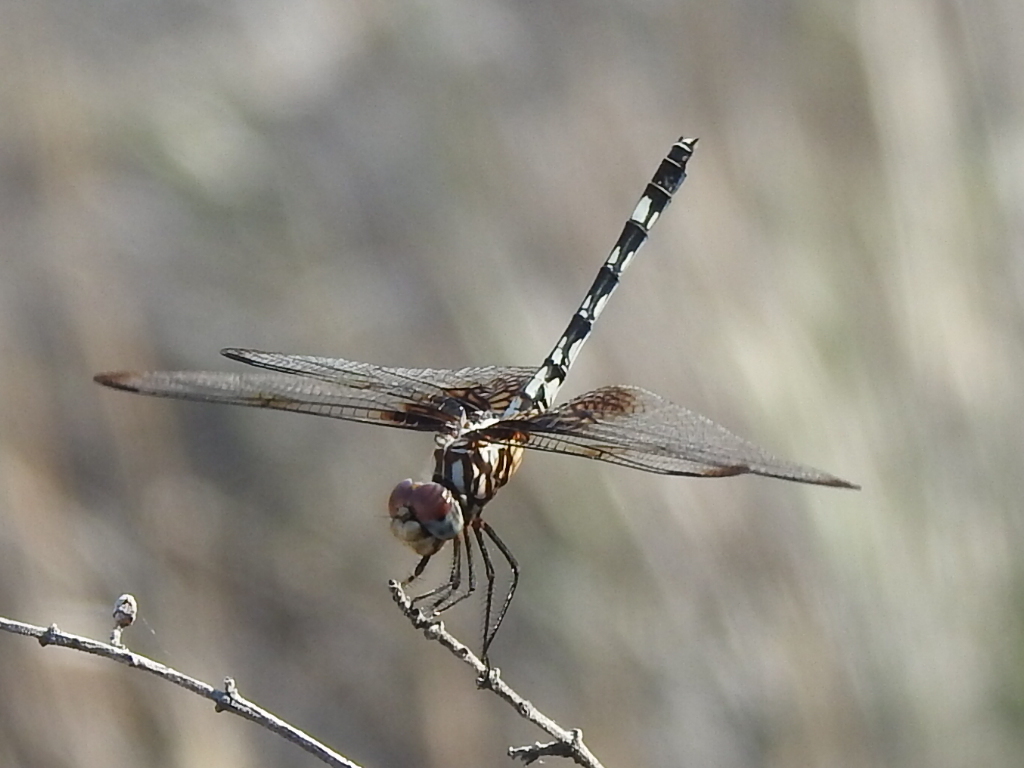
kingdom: Animalia
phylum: Arthropoda
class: Insecta
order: Odonata
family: Libellulidae
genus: Dythemis
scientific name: Dythemis fugax
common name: Checkered setwing
